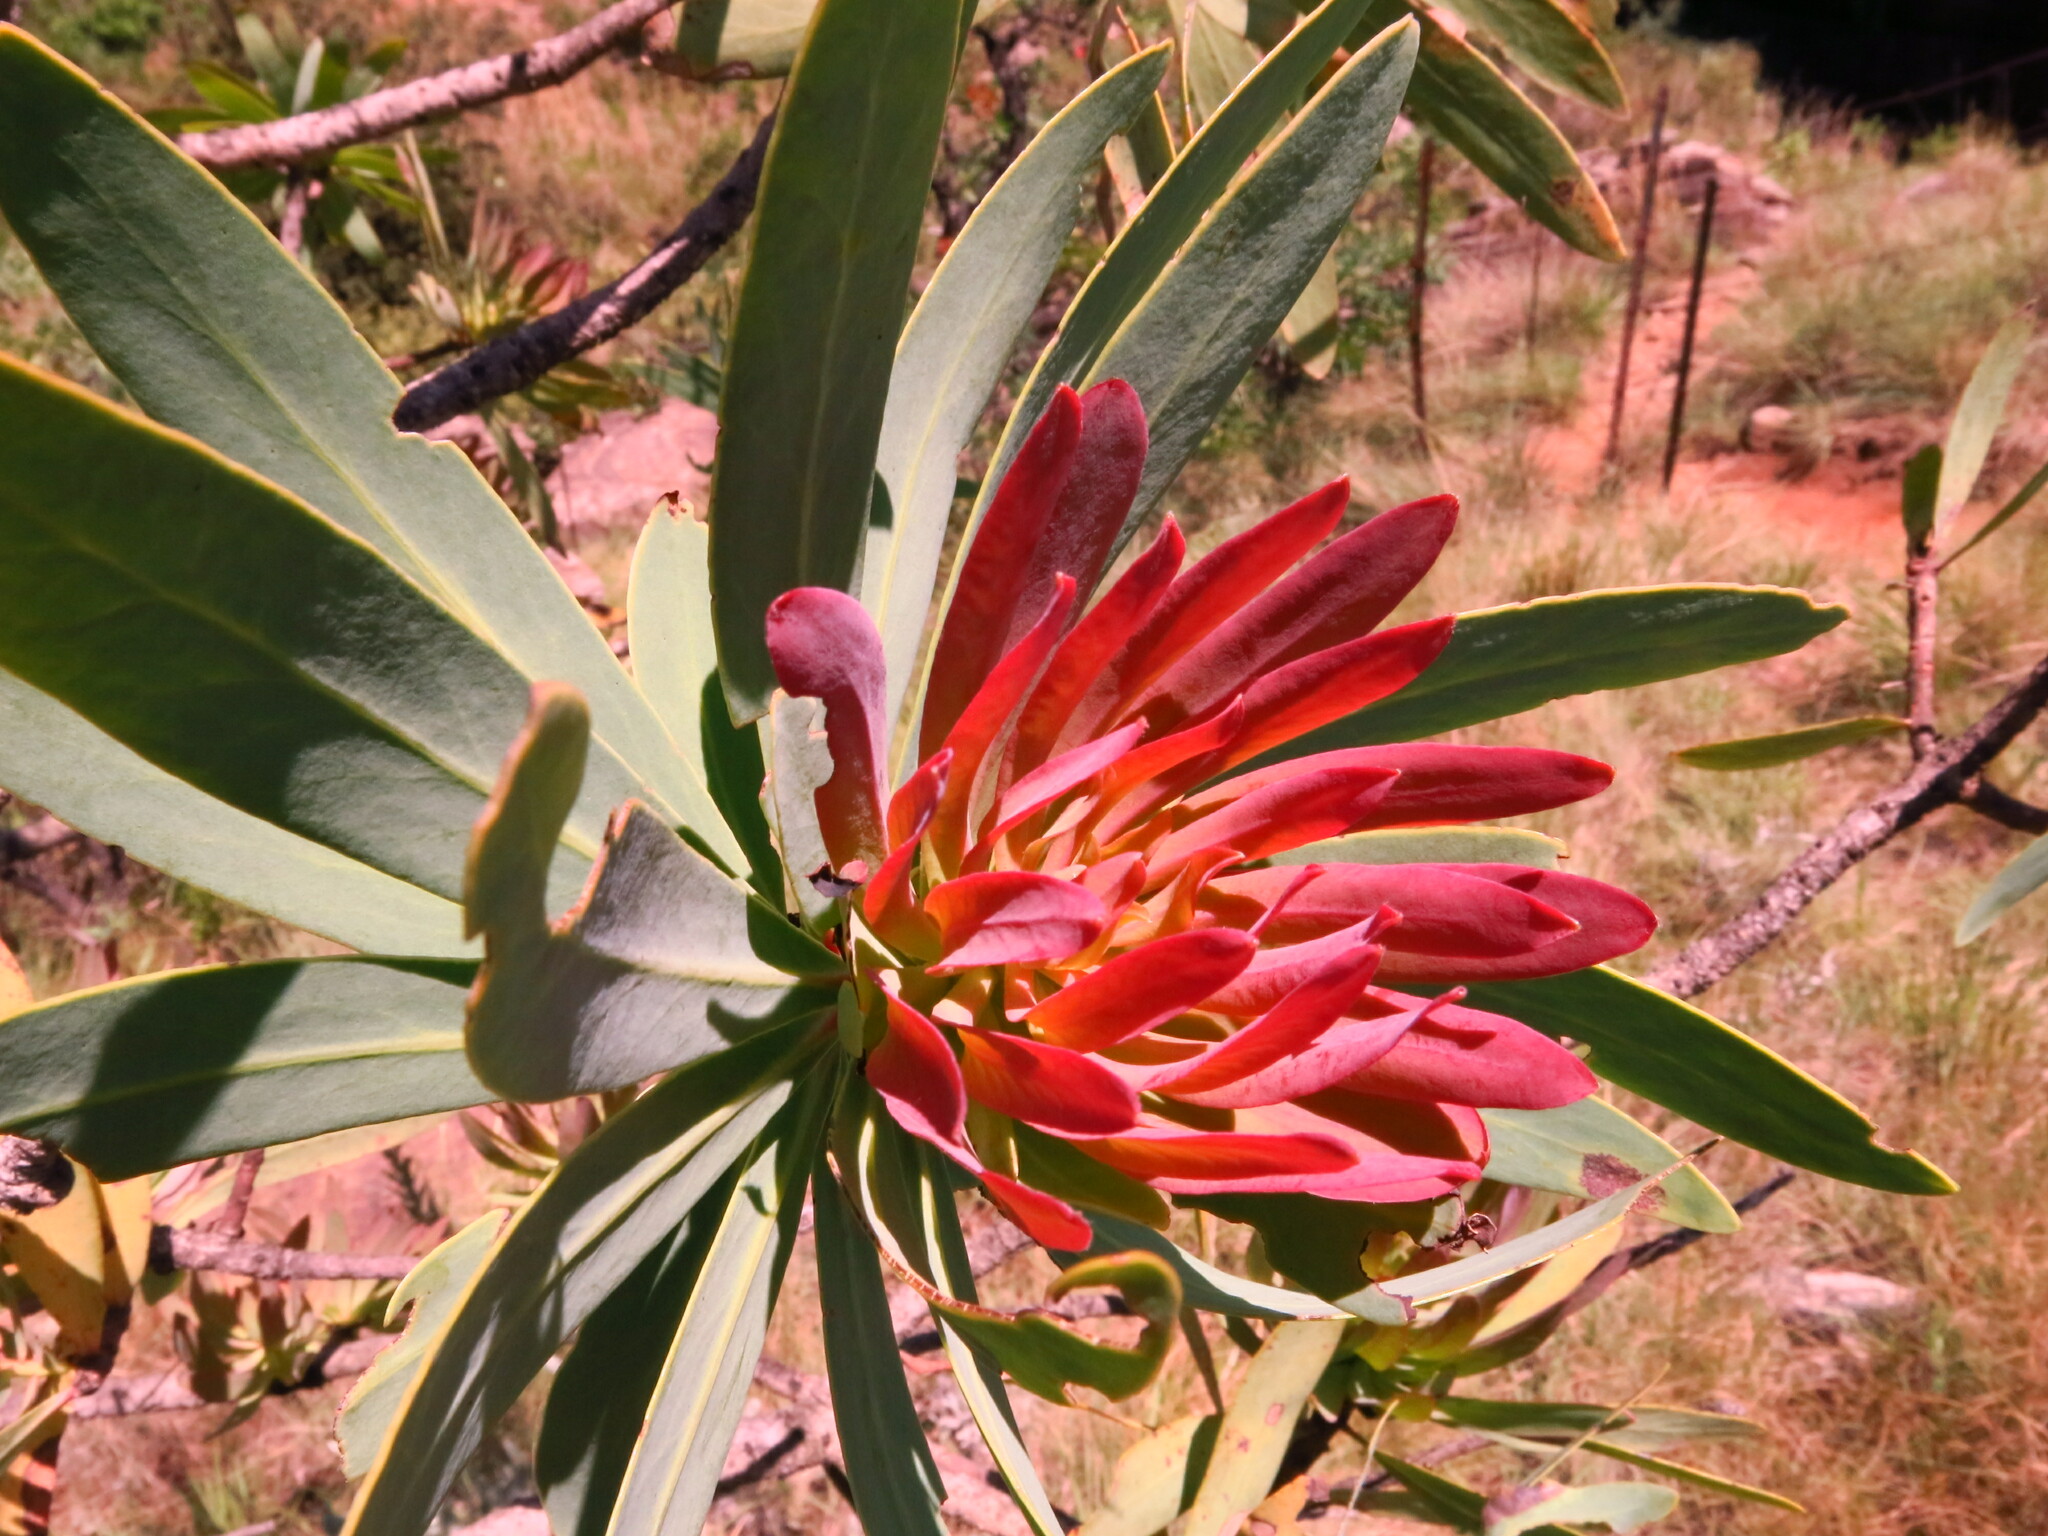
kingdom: Plantae
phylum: Tracheophyta
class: Magnoliopsida
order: Proteales
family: Proteaceae
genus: Protea
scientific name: Protea caffra
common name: Common sugarbush
